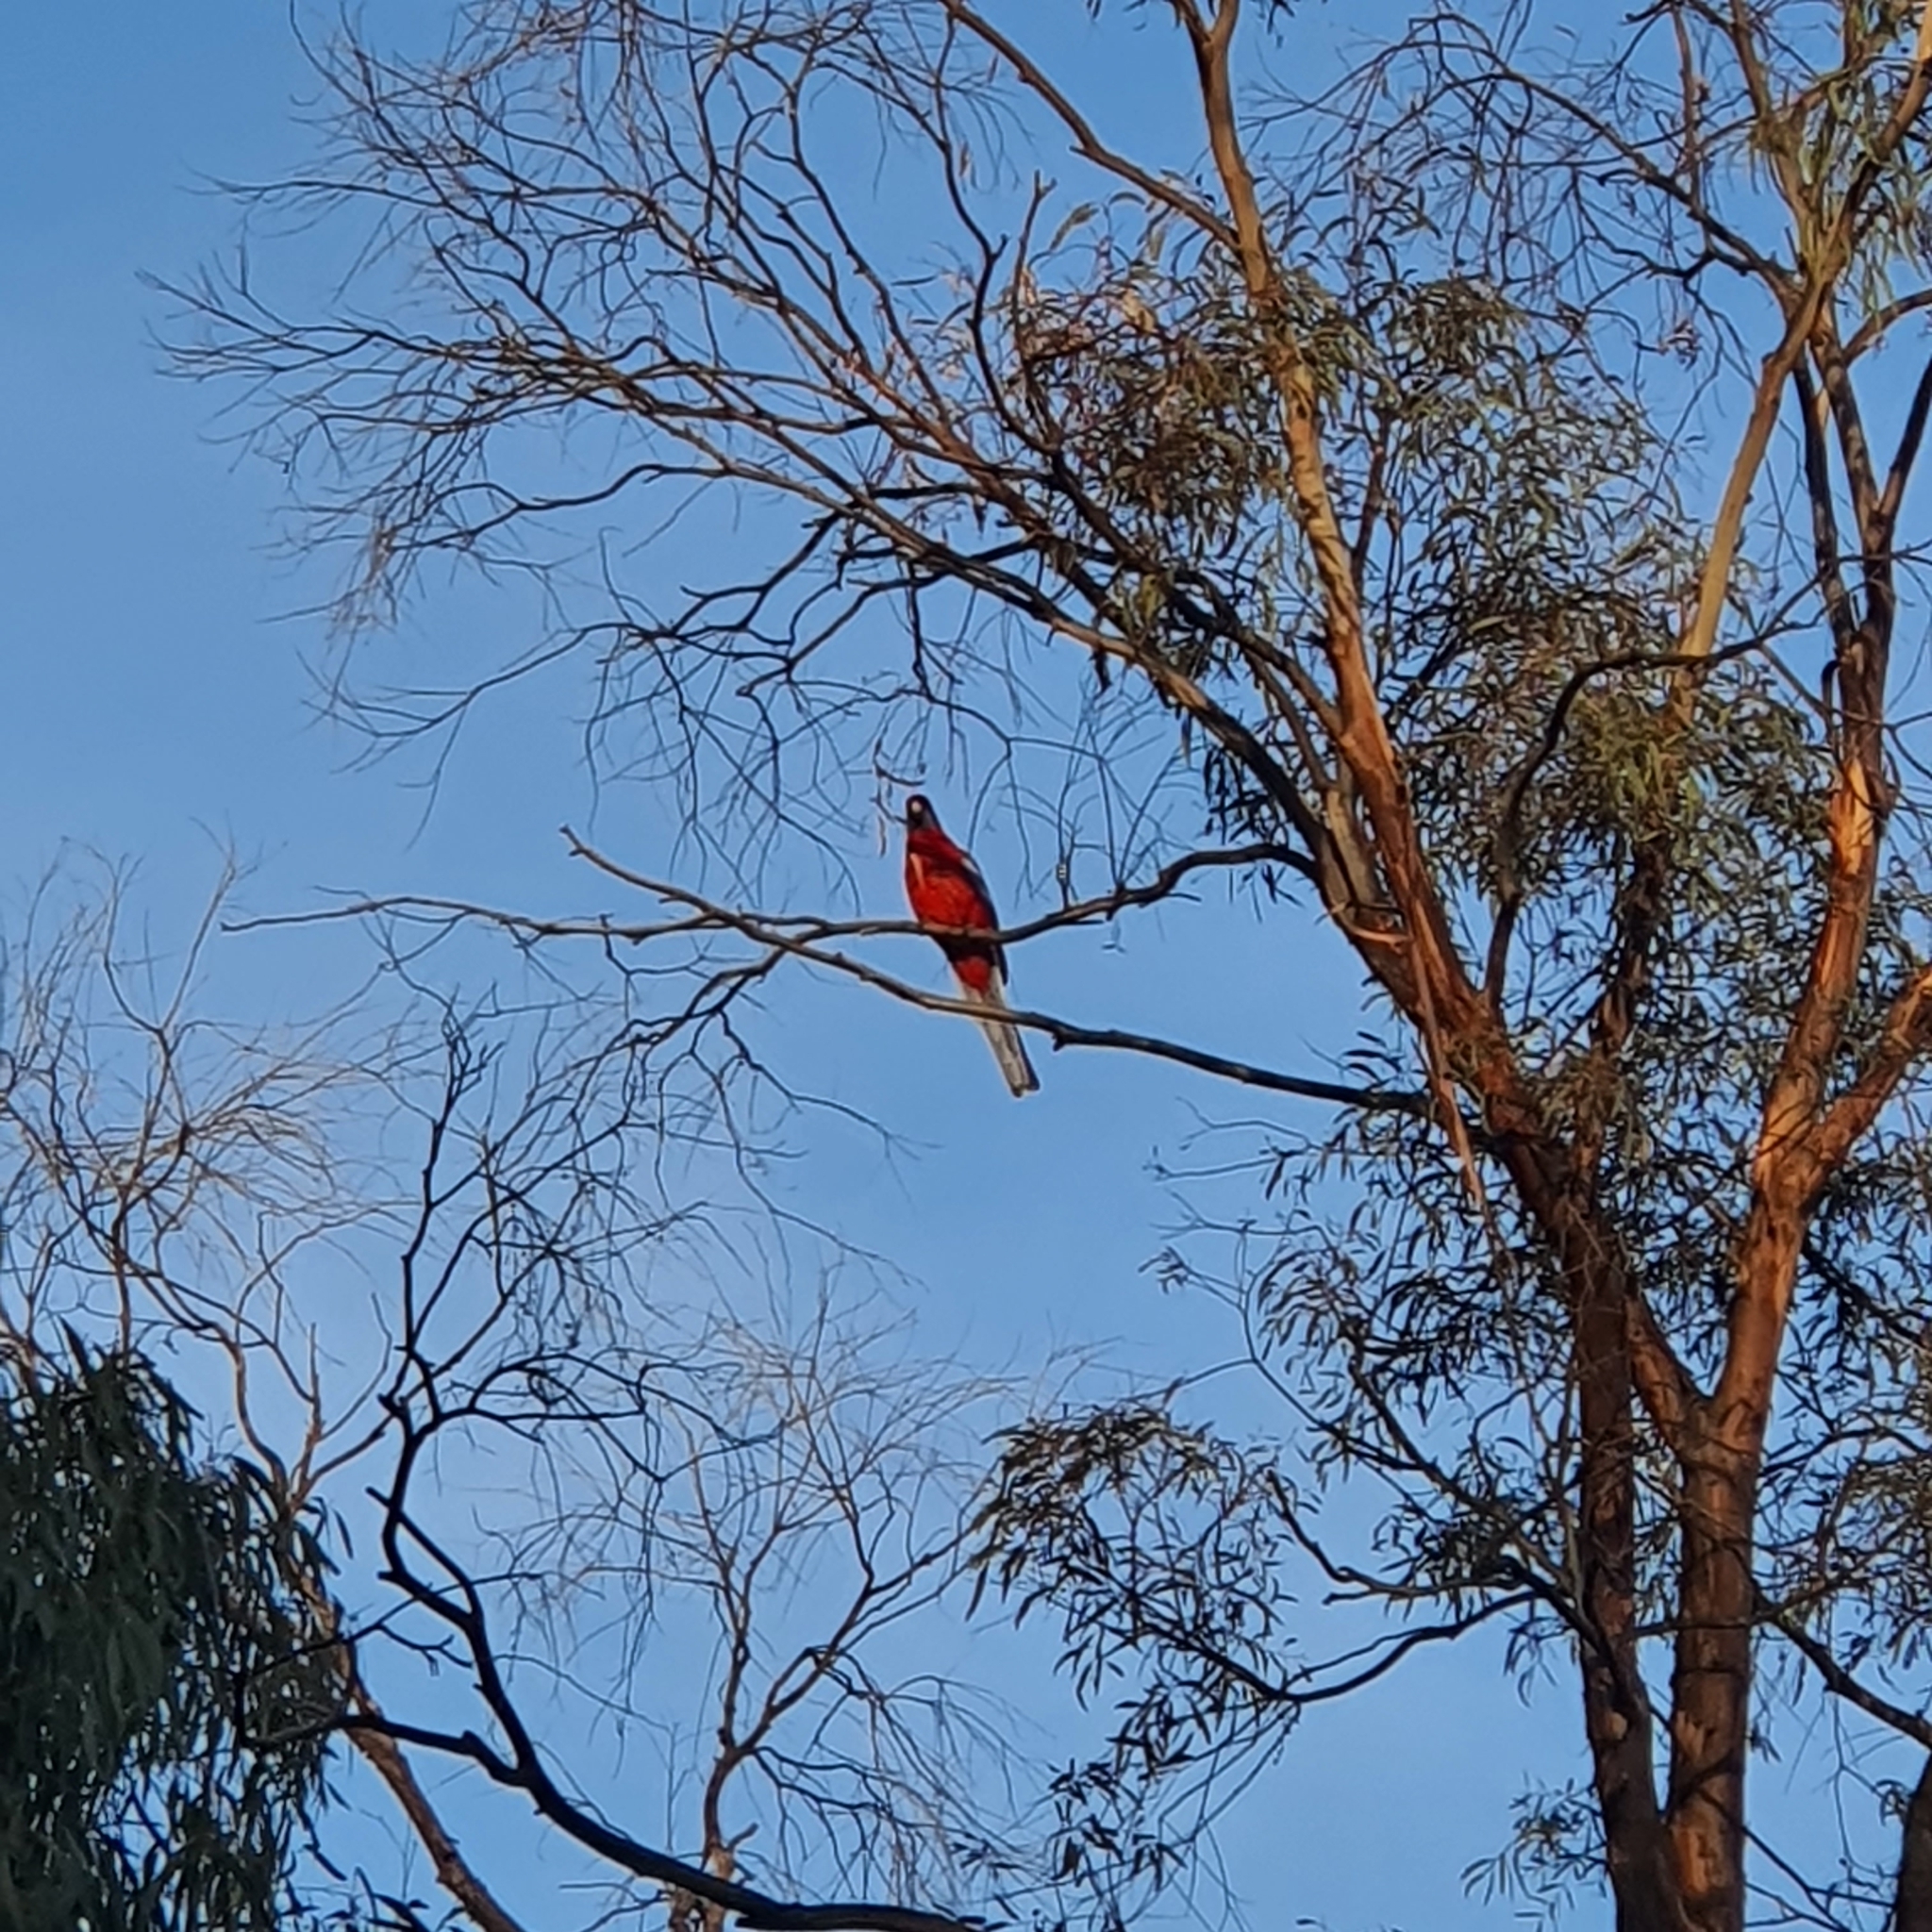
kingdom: Animalia
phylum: Chordata
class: Aves
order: Psittaciformes
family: Psittacidae
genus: Platycercus
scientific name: Platycercus elegans
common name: Crimson rosella
